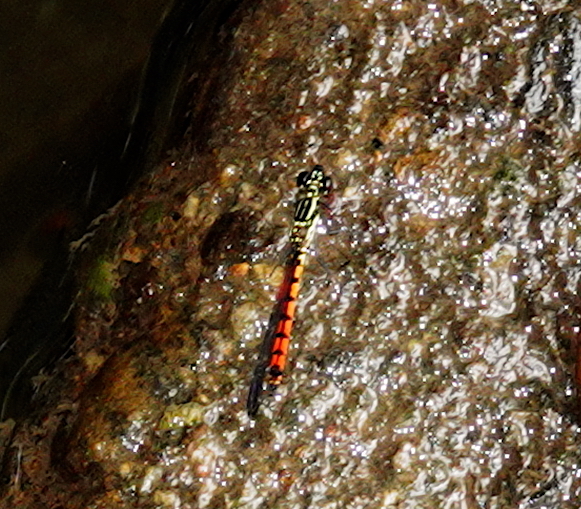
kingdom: Animalia
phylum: Arthropoda
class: Insecta
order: Odonata
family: Chlorocyphidae
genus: Libellago
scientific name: Libellago greeni
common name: Green’s gem
